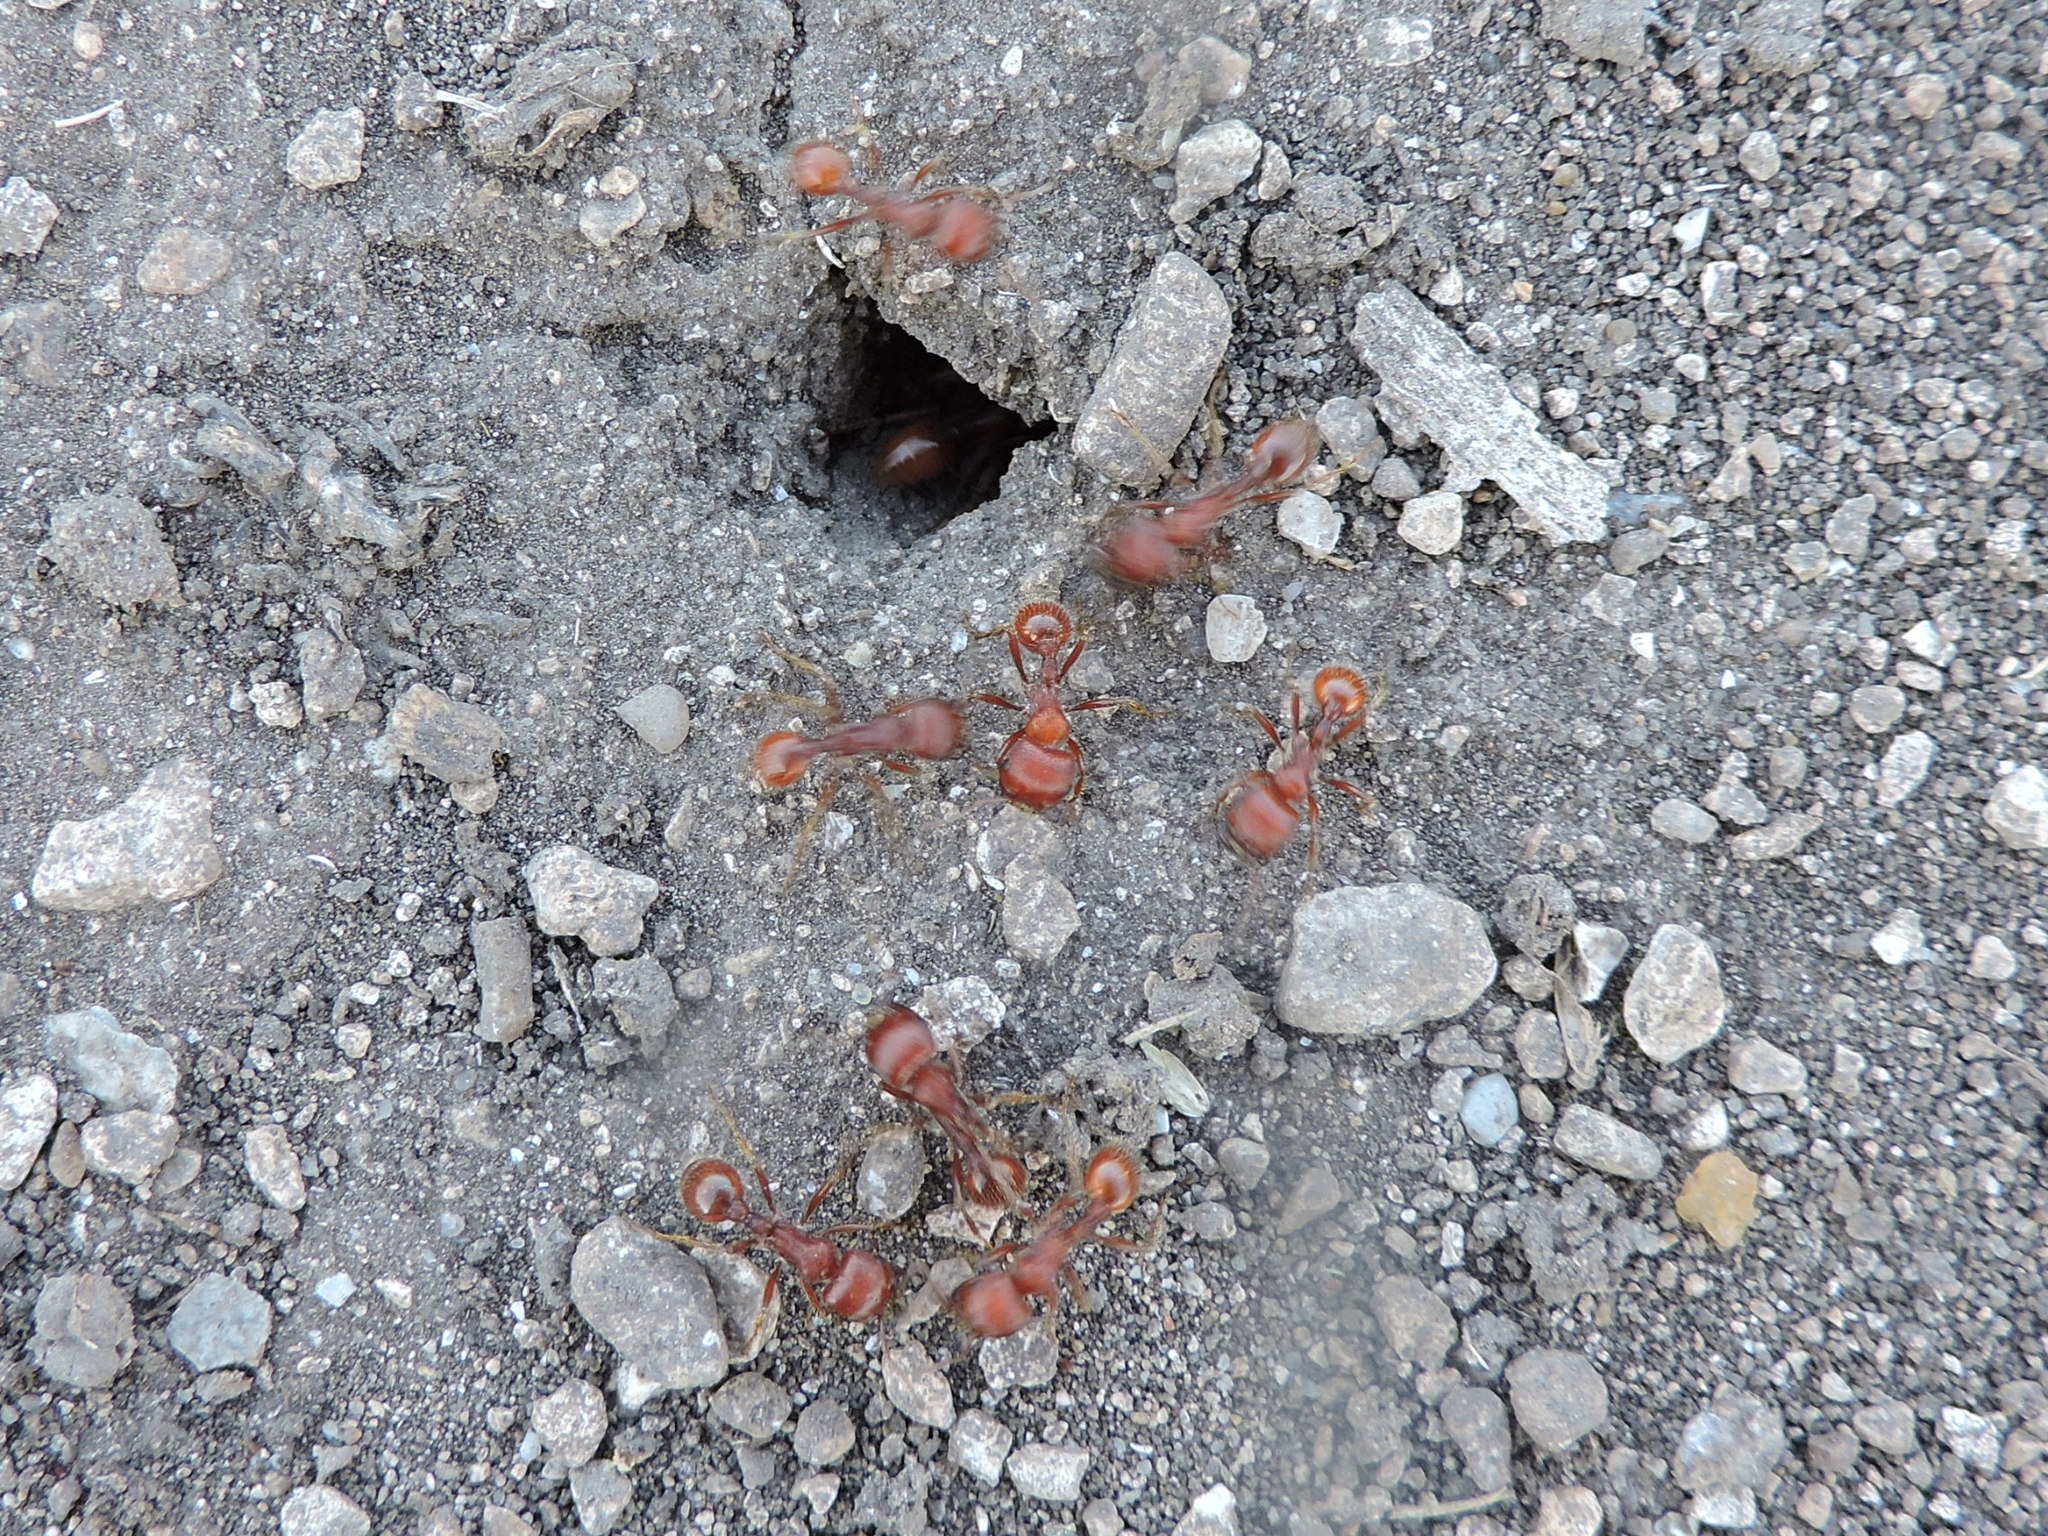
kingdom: Animalia
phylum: Arthropoda
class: Insecta
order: Hymenoptera
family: Formicidae
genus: Pogonomyrmex
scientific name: Pogonomyrmex barbatus
